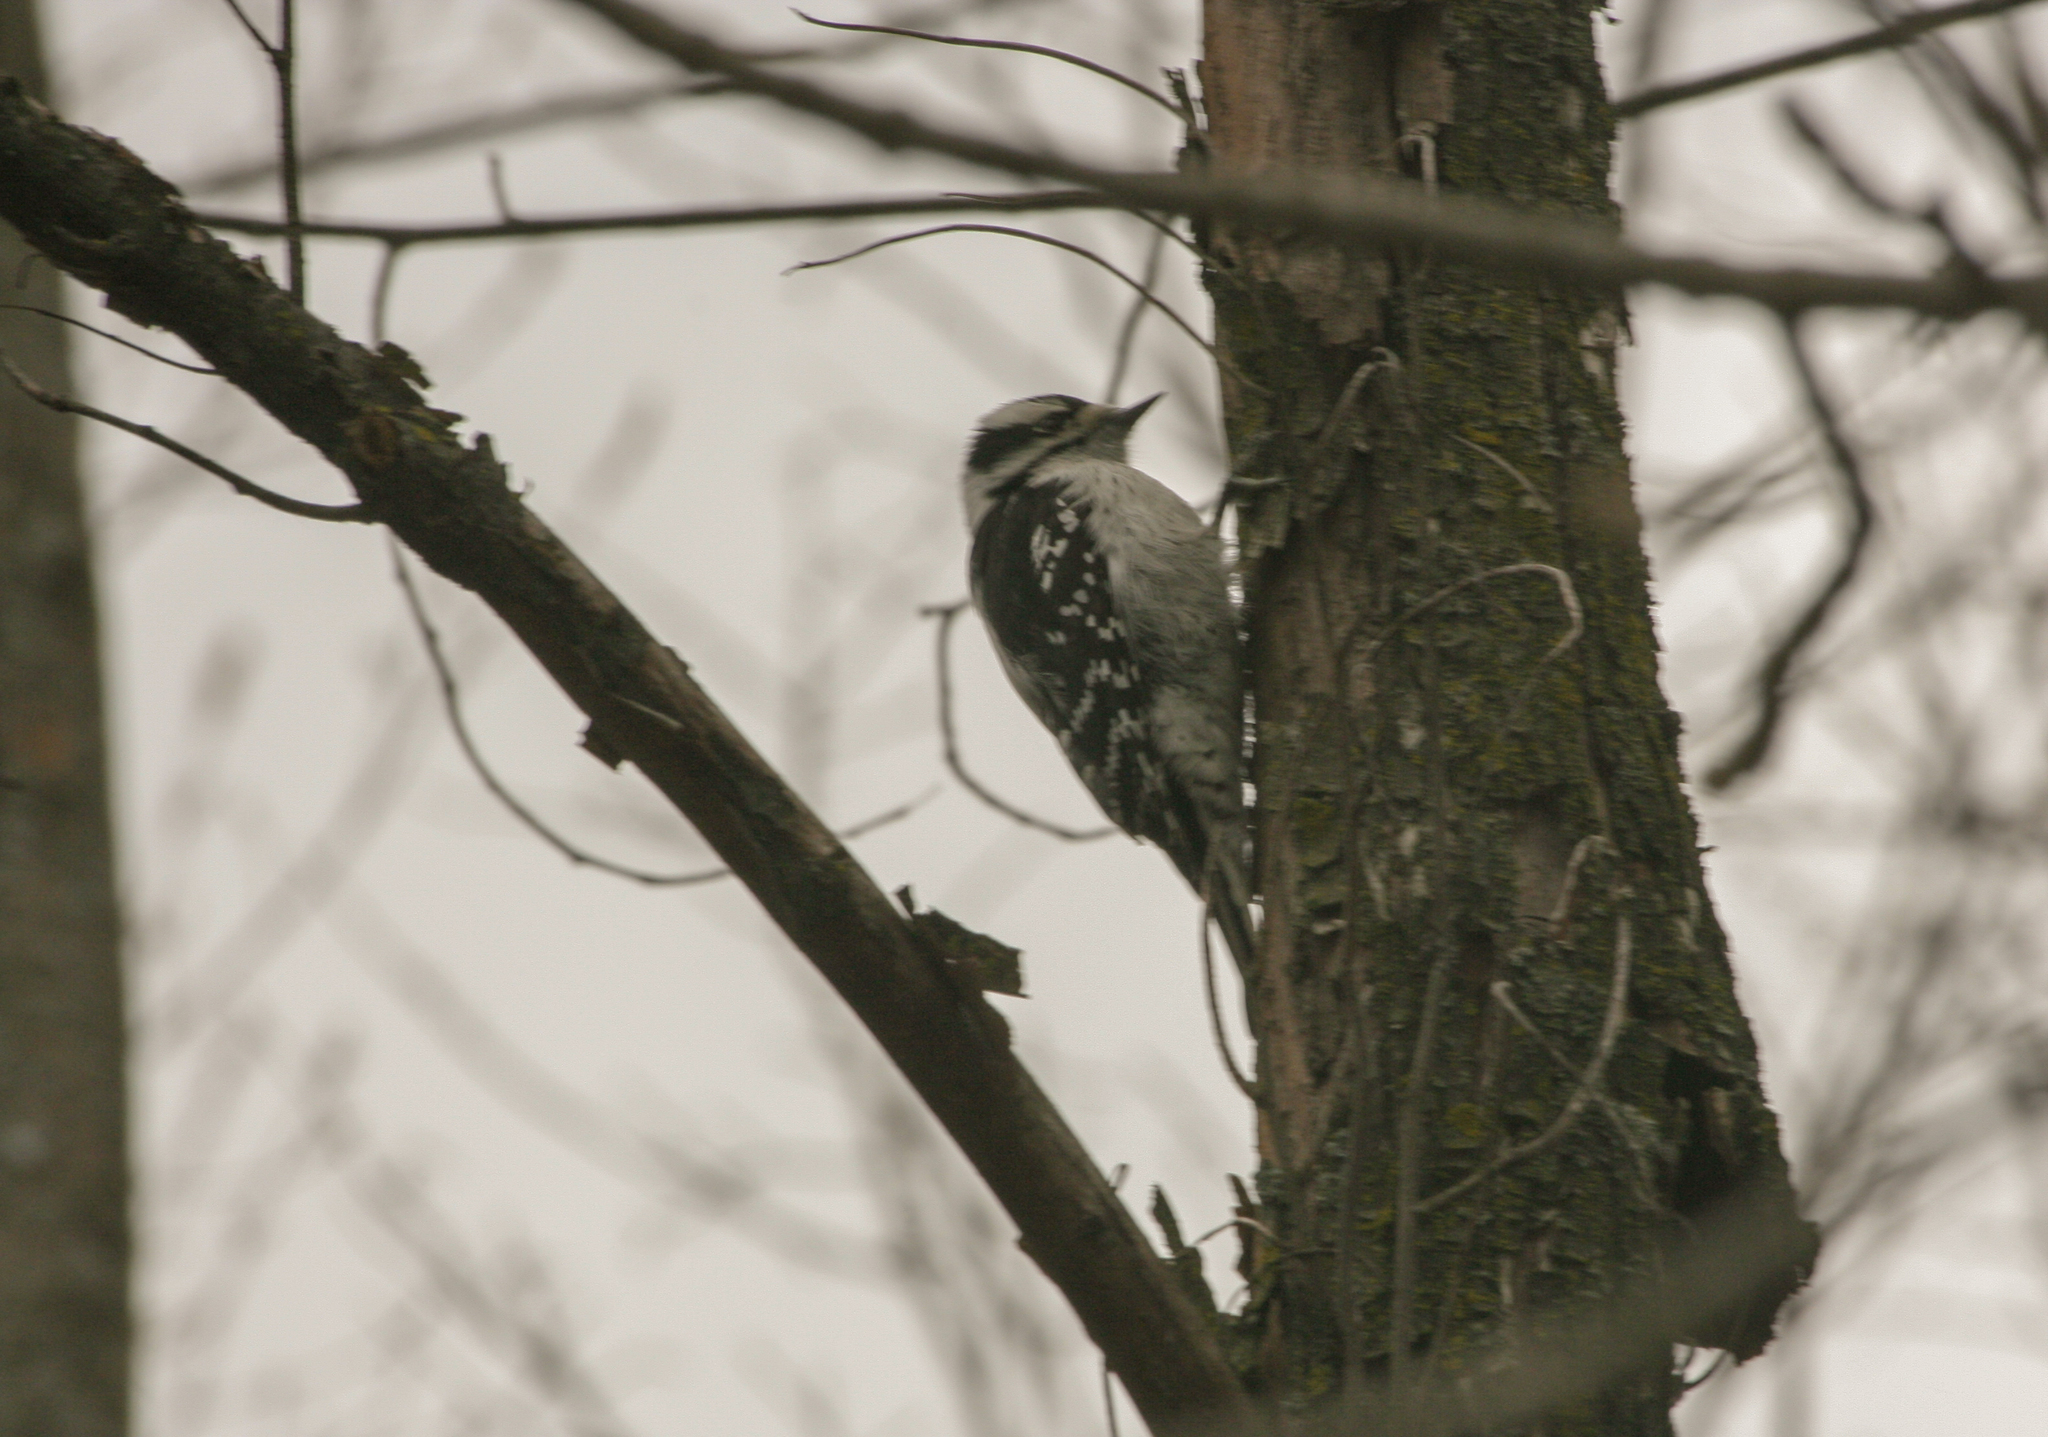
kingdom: Animalia
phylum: Chordata
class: Aves
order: Piciformes
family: Picidae
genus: Dryobates
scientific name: Dryobates pubescens
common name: Downy woodpecker
